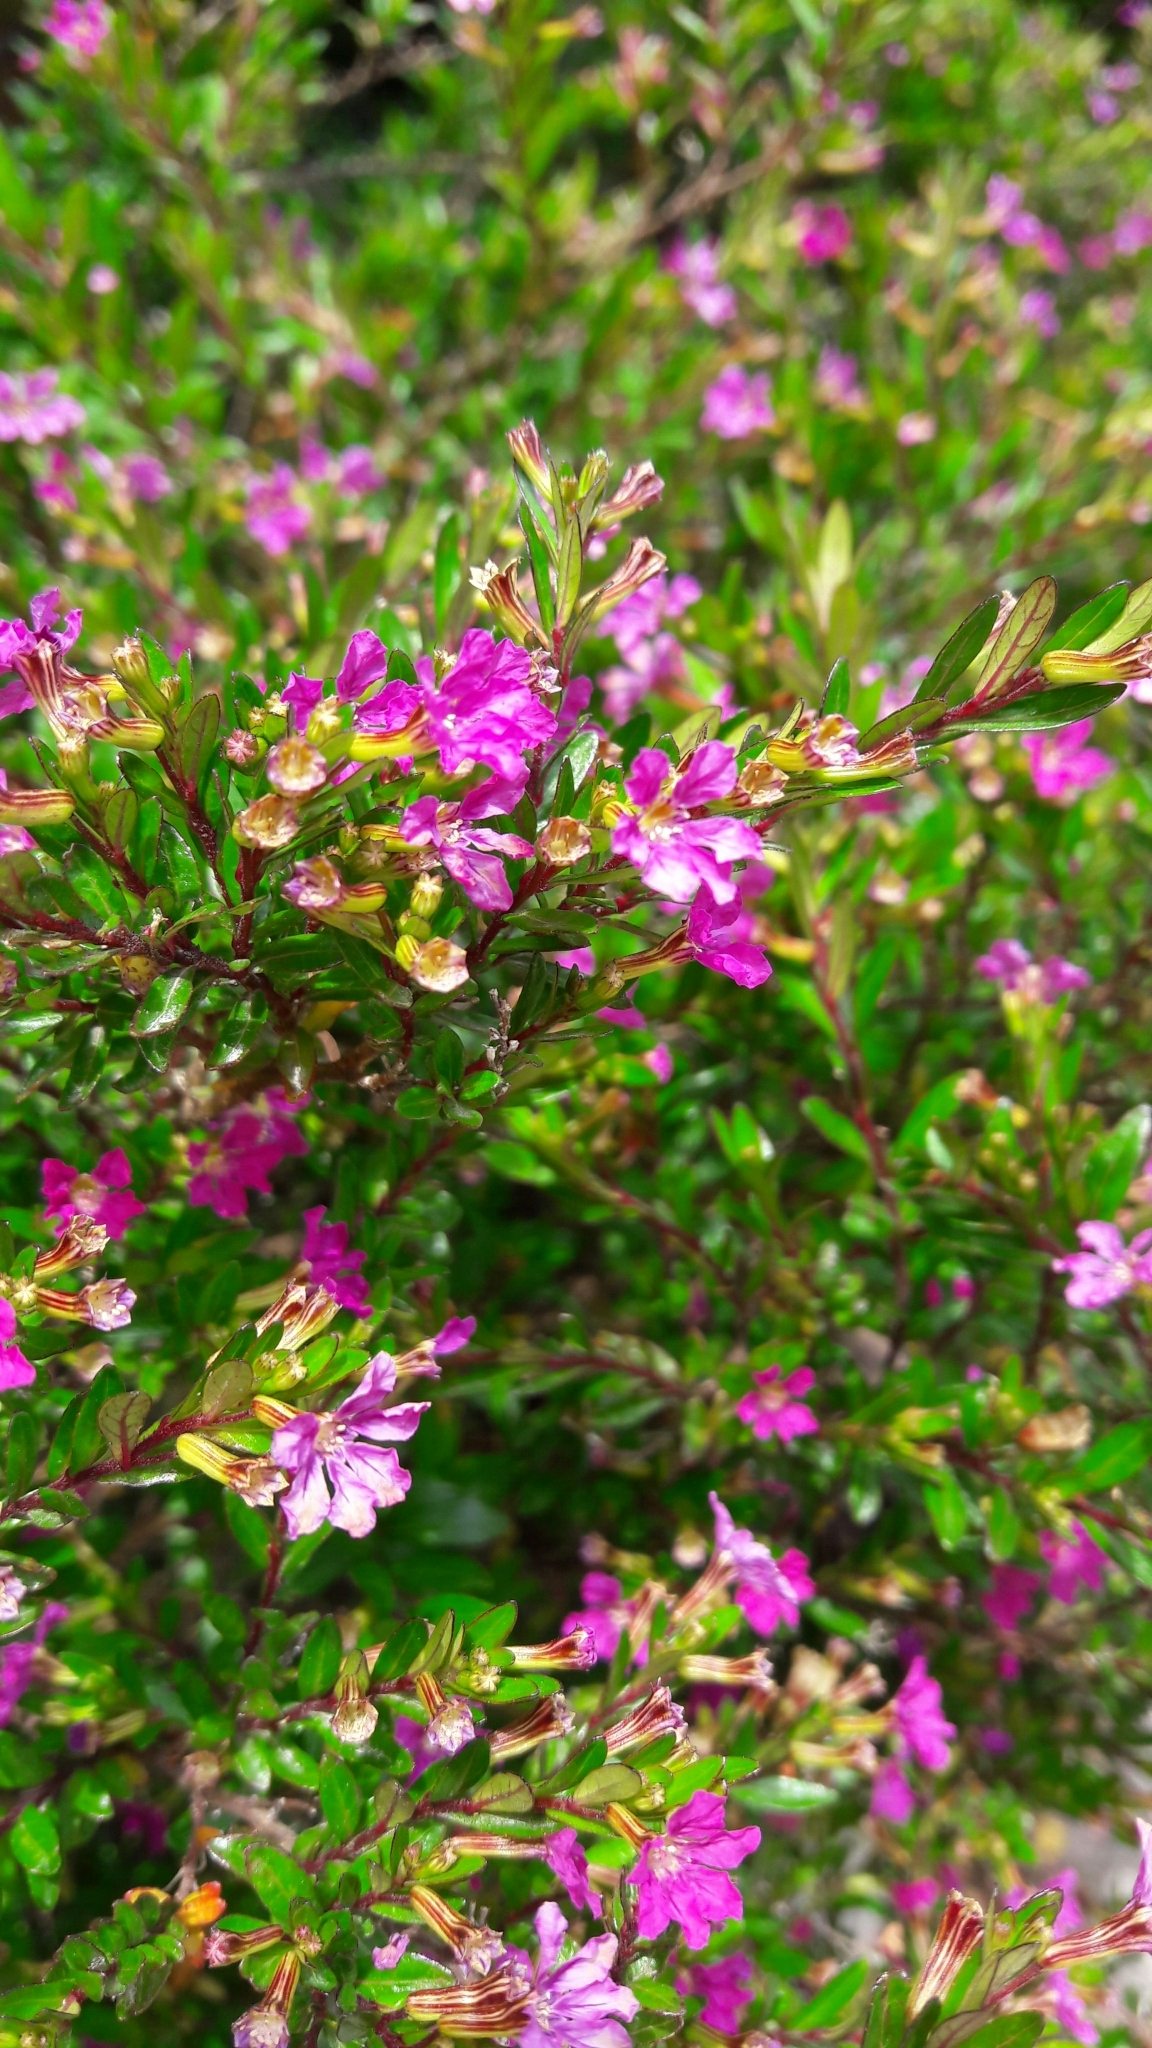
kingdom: Plantae
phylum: Tracheophyta
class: Magnoliopsida
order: Myrtales
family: Lythraceae
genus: Cuphea
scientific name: Cuphea hyssopifolia
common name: False heather
